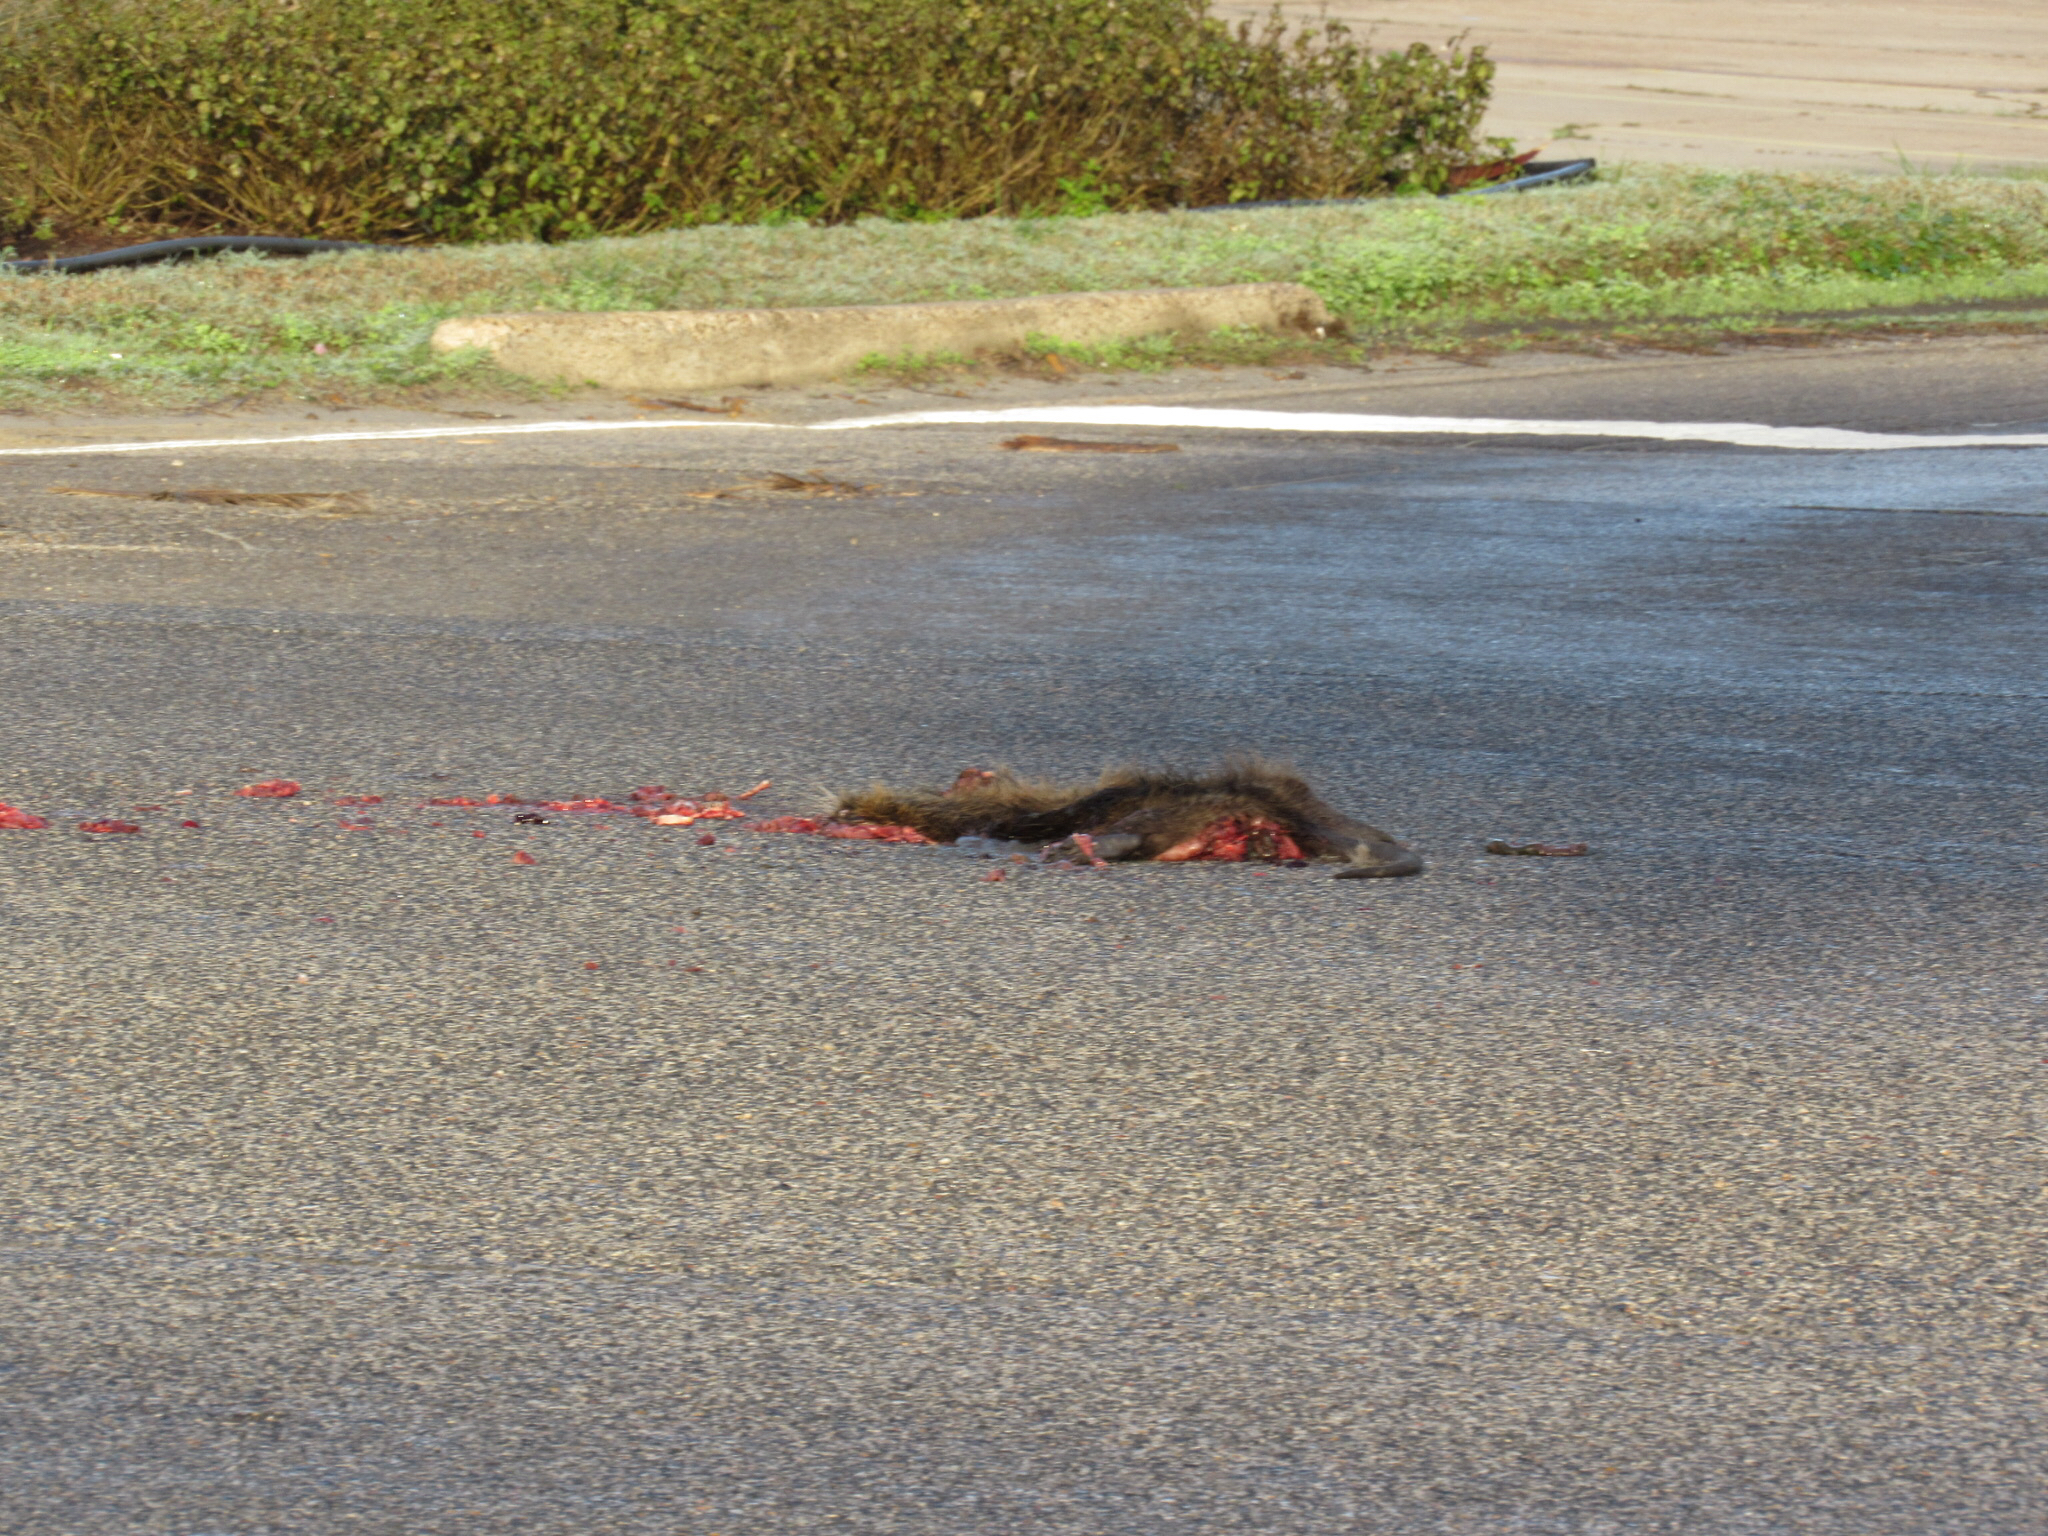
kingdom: Animalia
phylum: Chordata
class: Mammalia
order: Rodentia
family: Myocastoridae
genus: Myocastor
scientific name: Myocastor coypus
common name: Coypu
